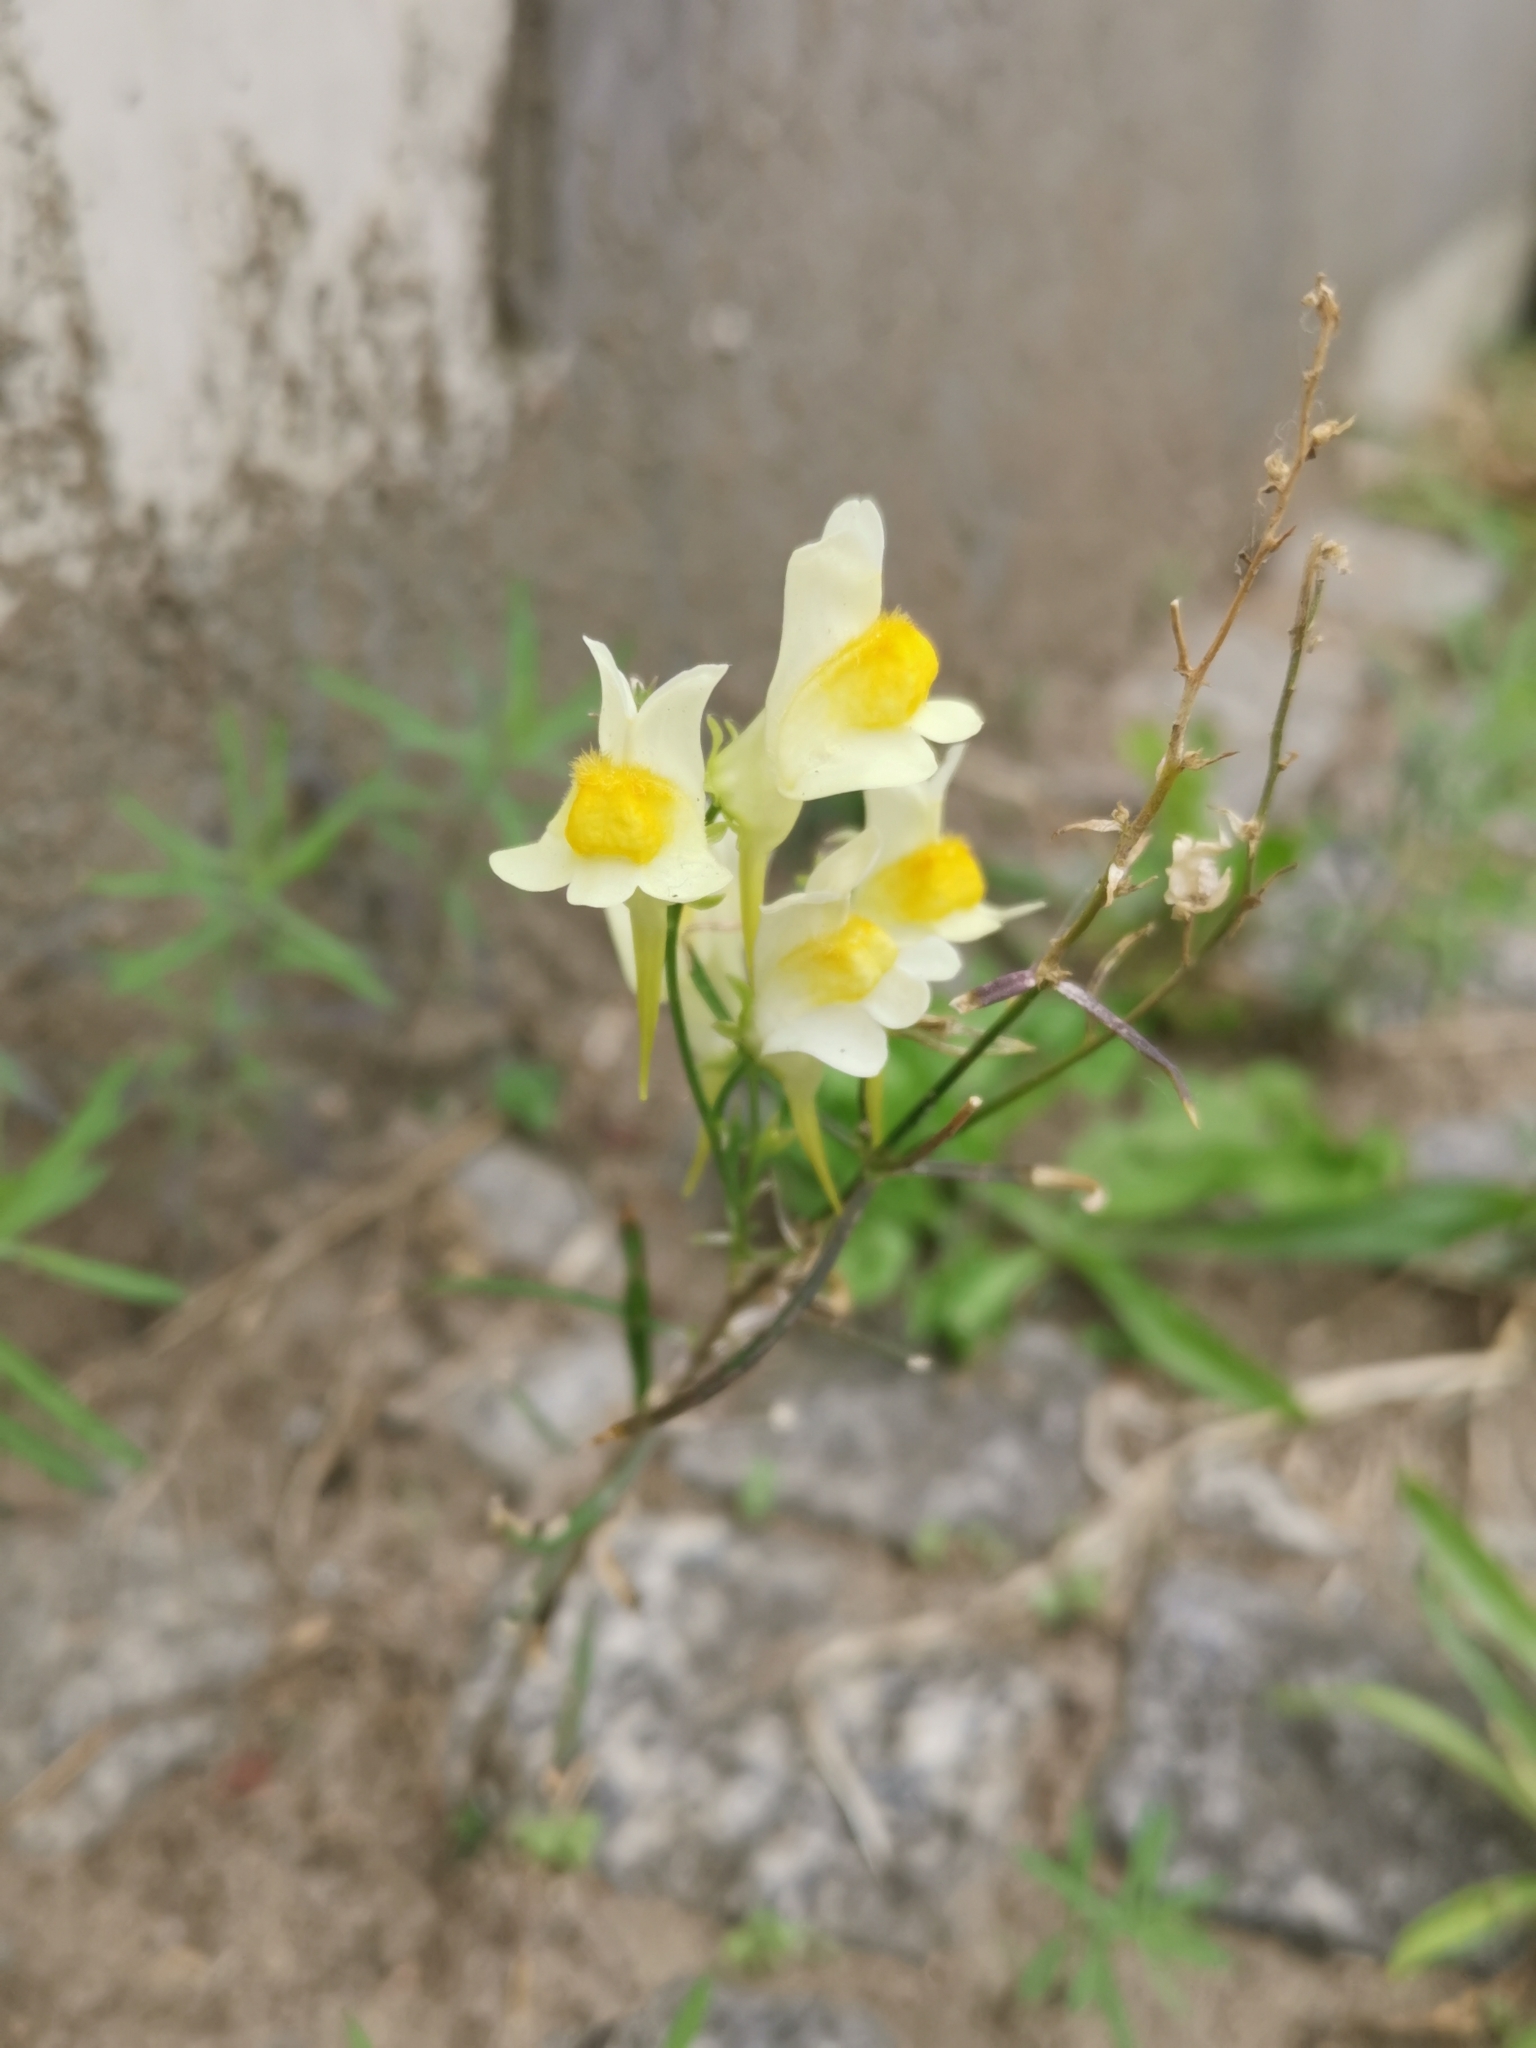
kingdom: Plantae
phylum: Tracheophyta
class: Magnoliopsida
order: Lamiales
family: Plantaginaceae
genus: Linaria
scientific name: Linaria vulgaris
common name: Butter and eggs
